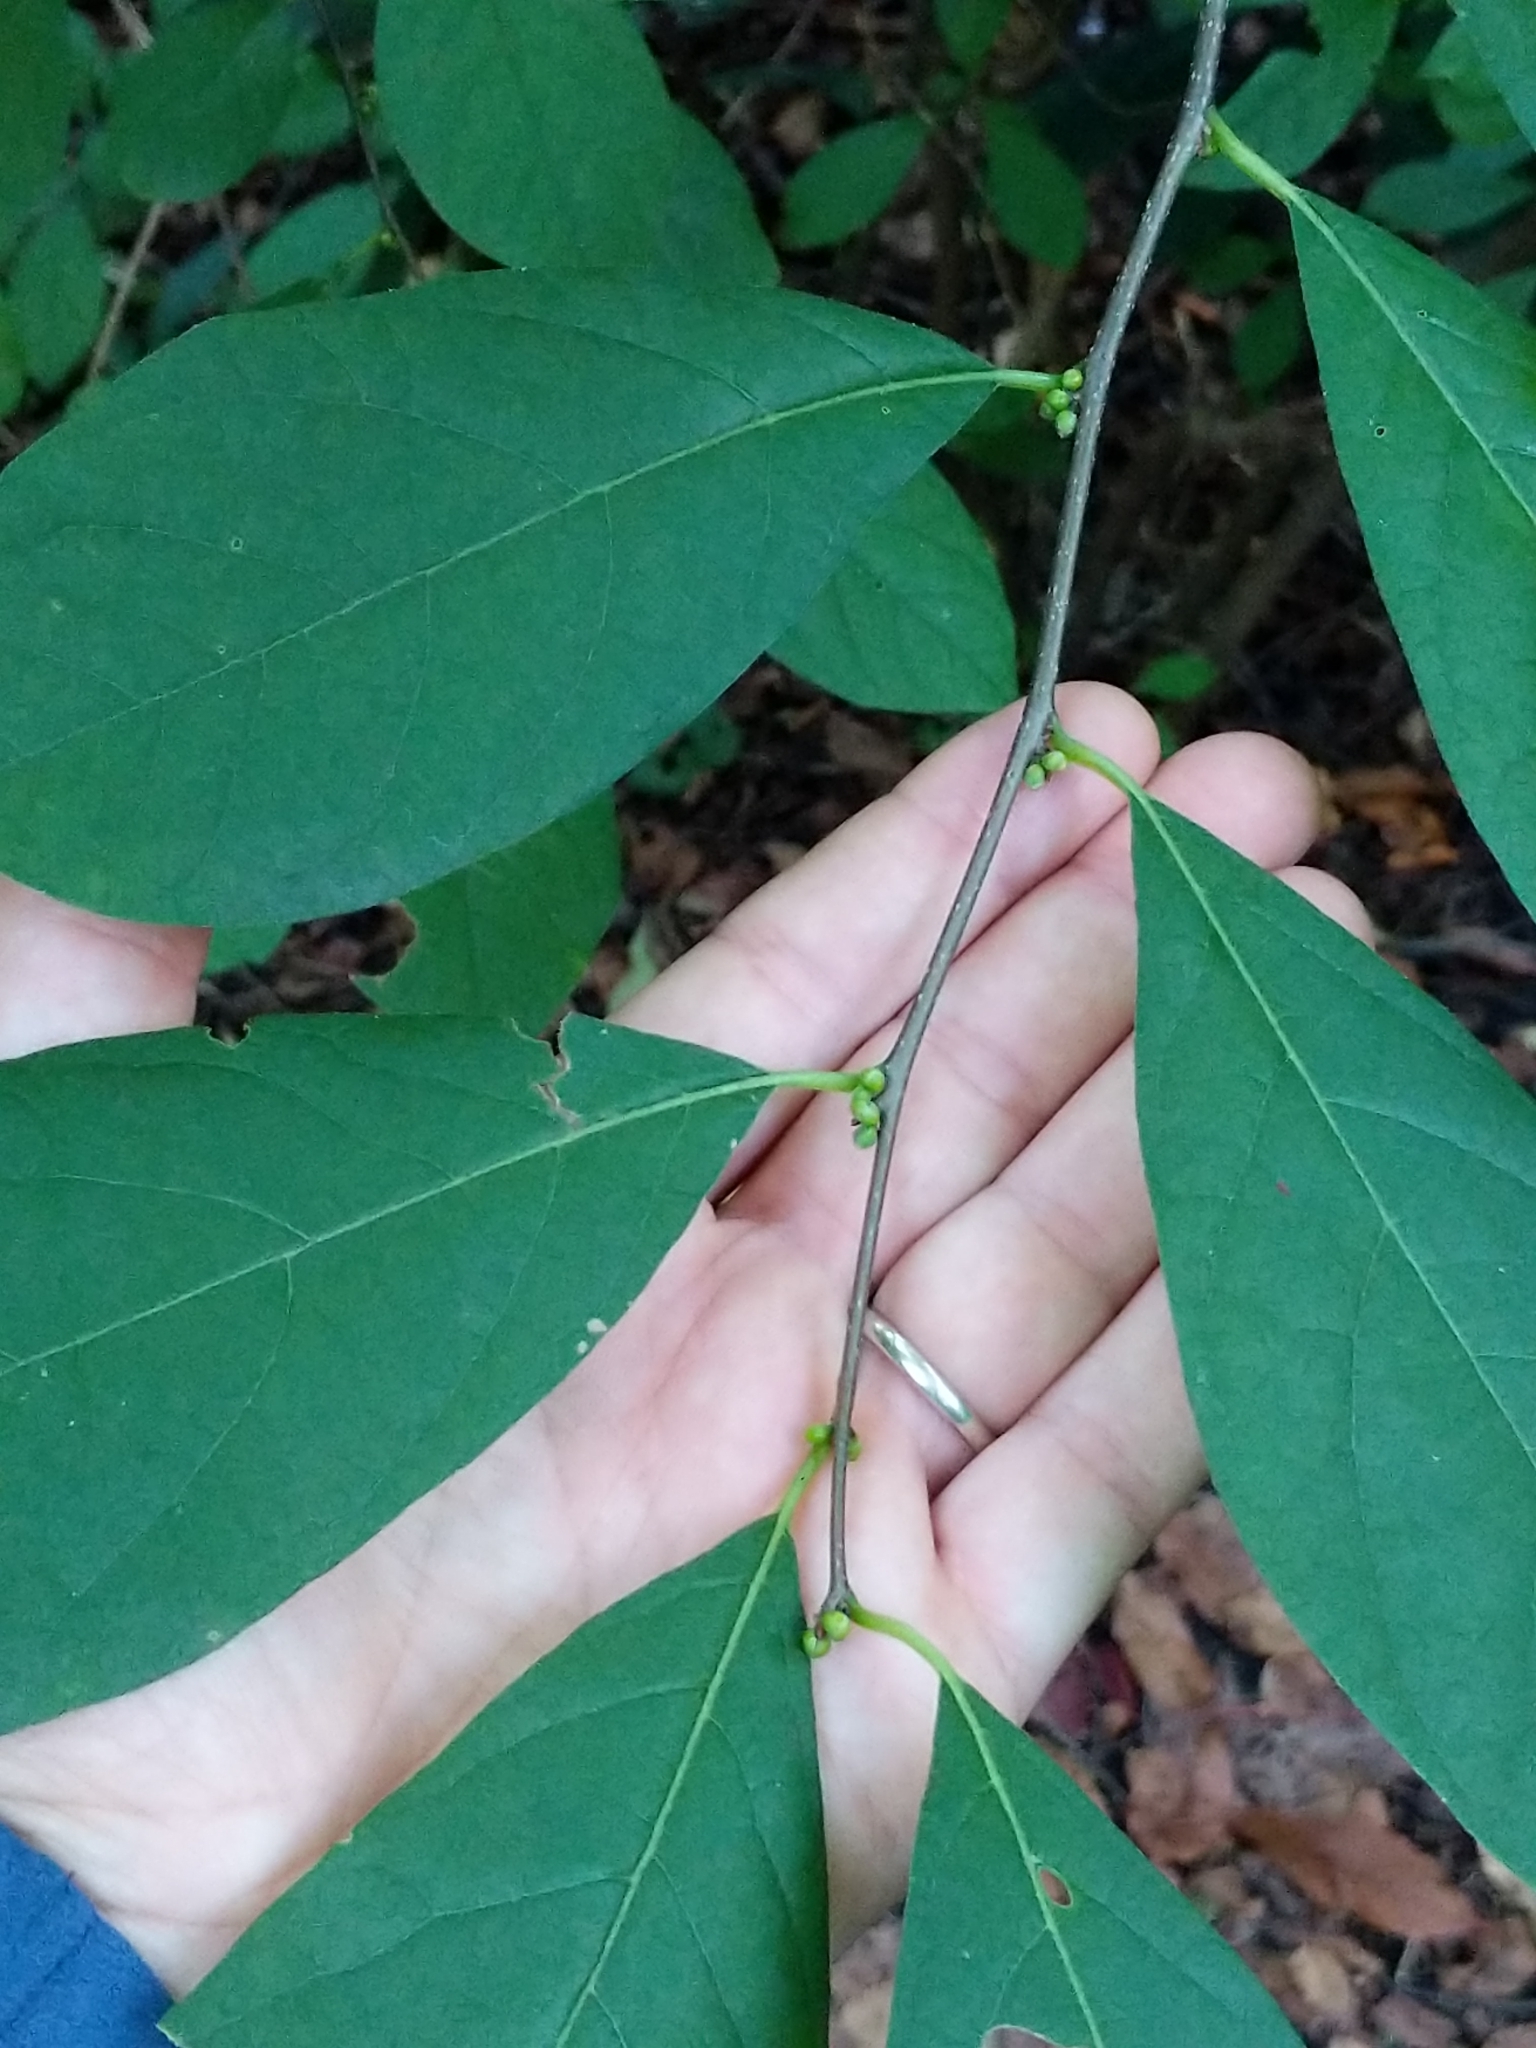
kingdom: Plantae
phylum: Tracheophyta
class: Magnoliopsida
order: Laurales
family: Lauraceae
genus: Lindera
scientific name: Lindera benzoin
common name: Spicebush
